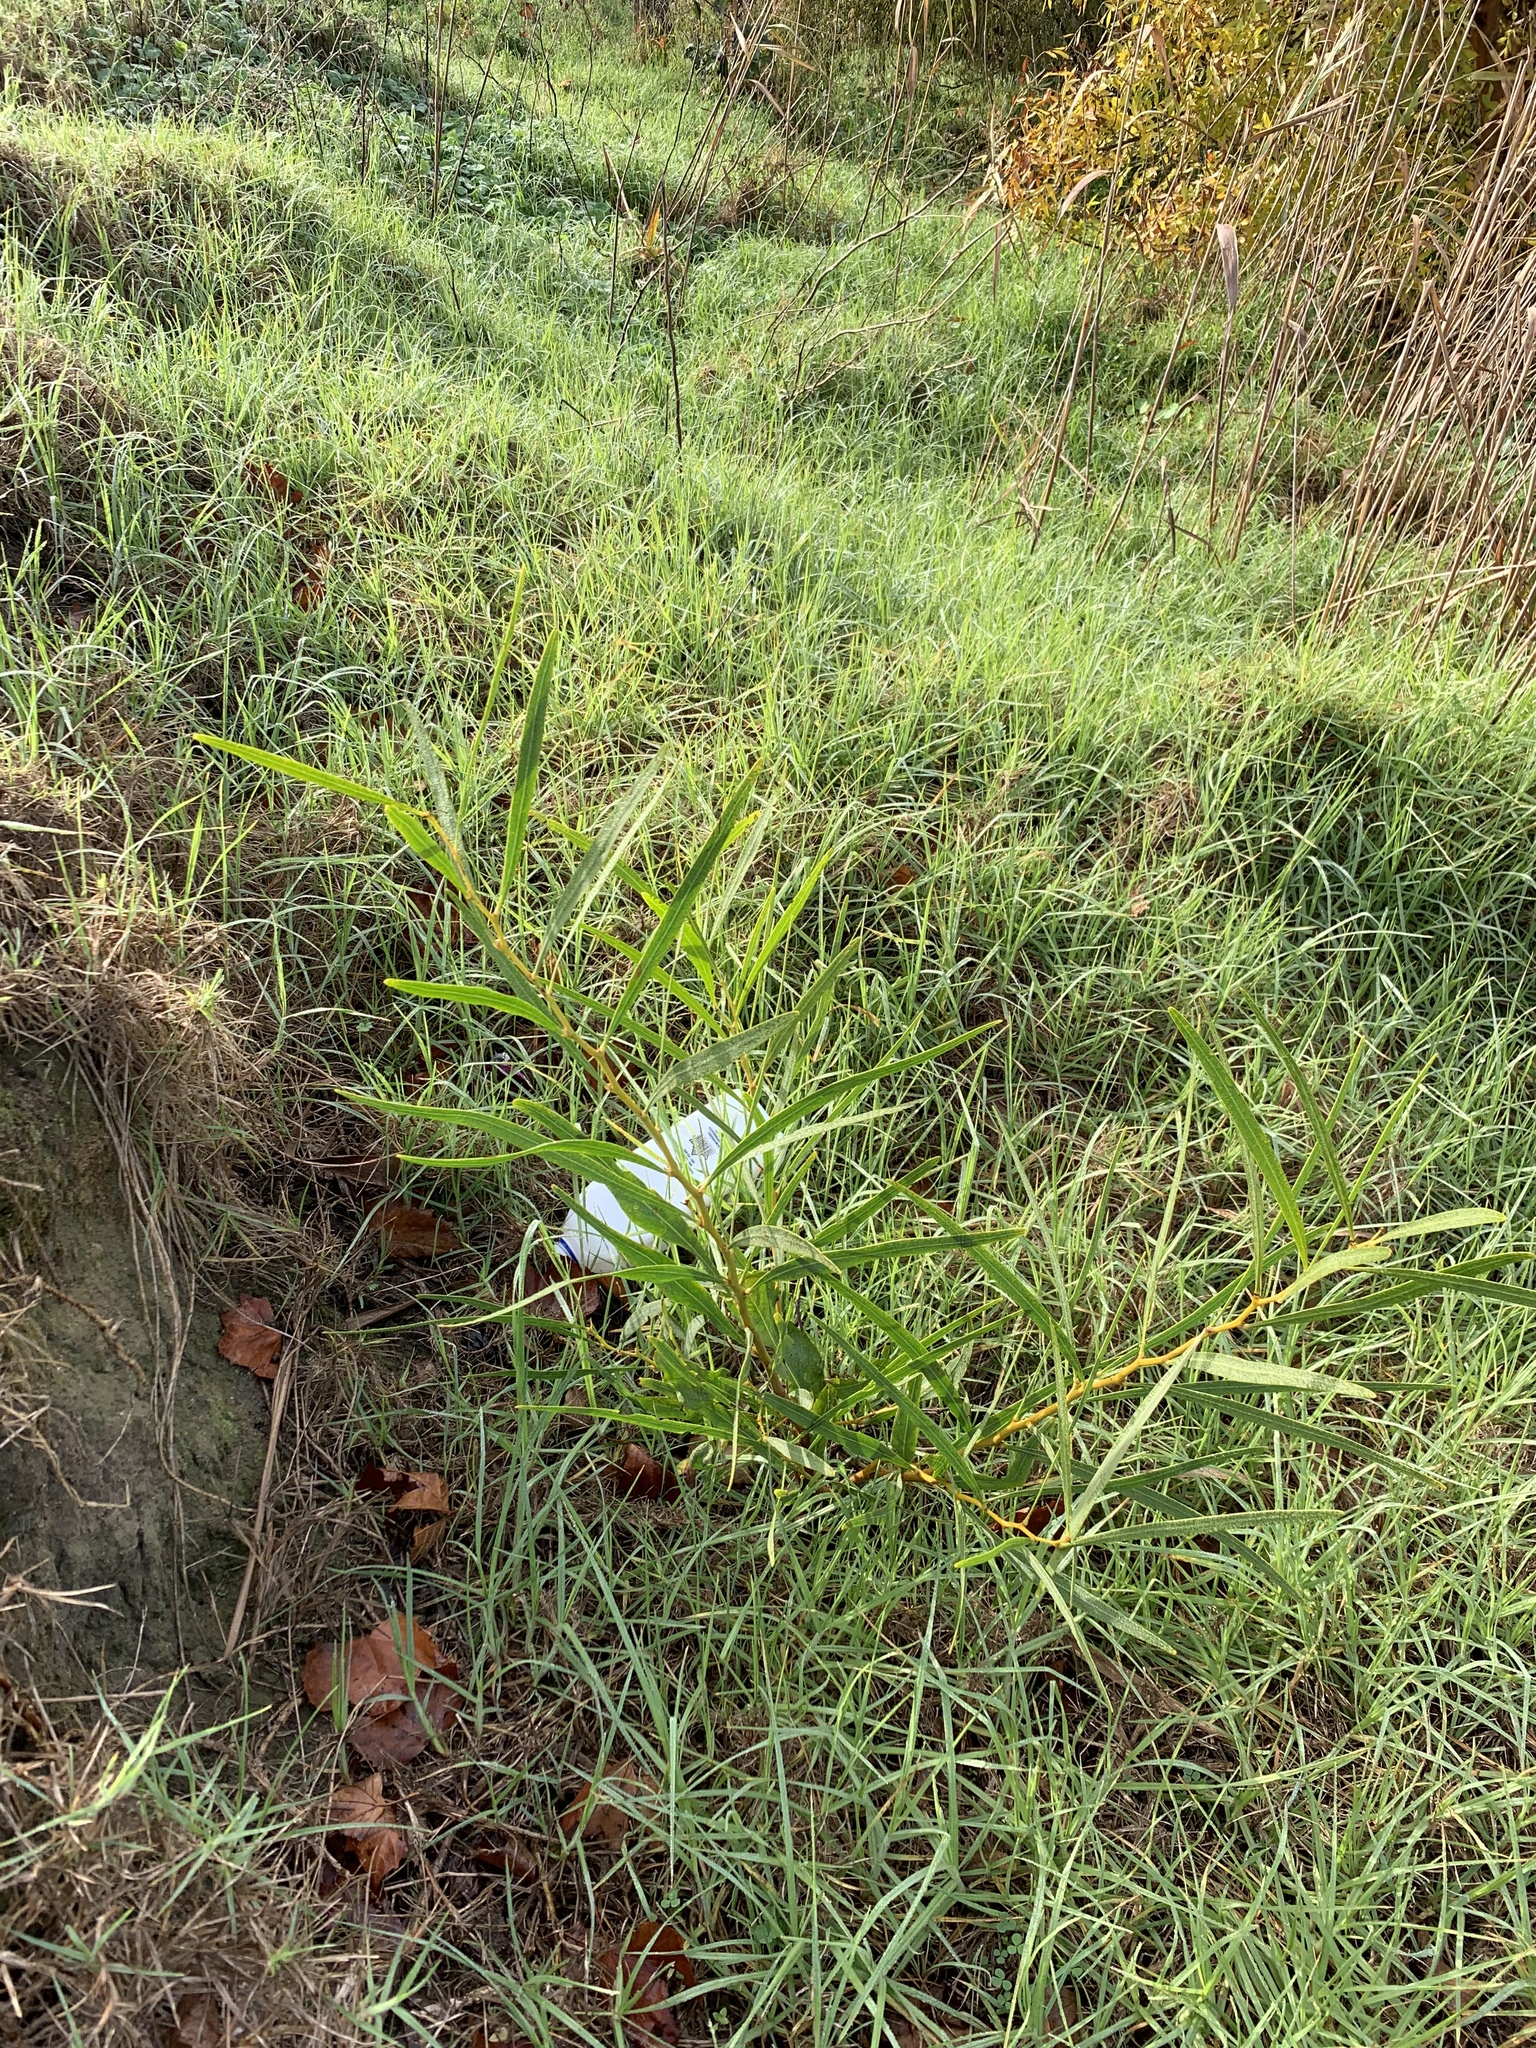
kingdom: Plantae
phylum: Tracheophyta
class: Magnoliopsida
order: Fabales
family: Fabaceae
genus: Acacia
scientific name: Acacia saligna
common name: Orange wattle
